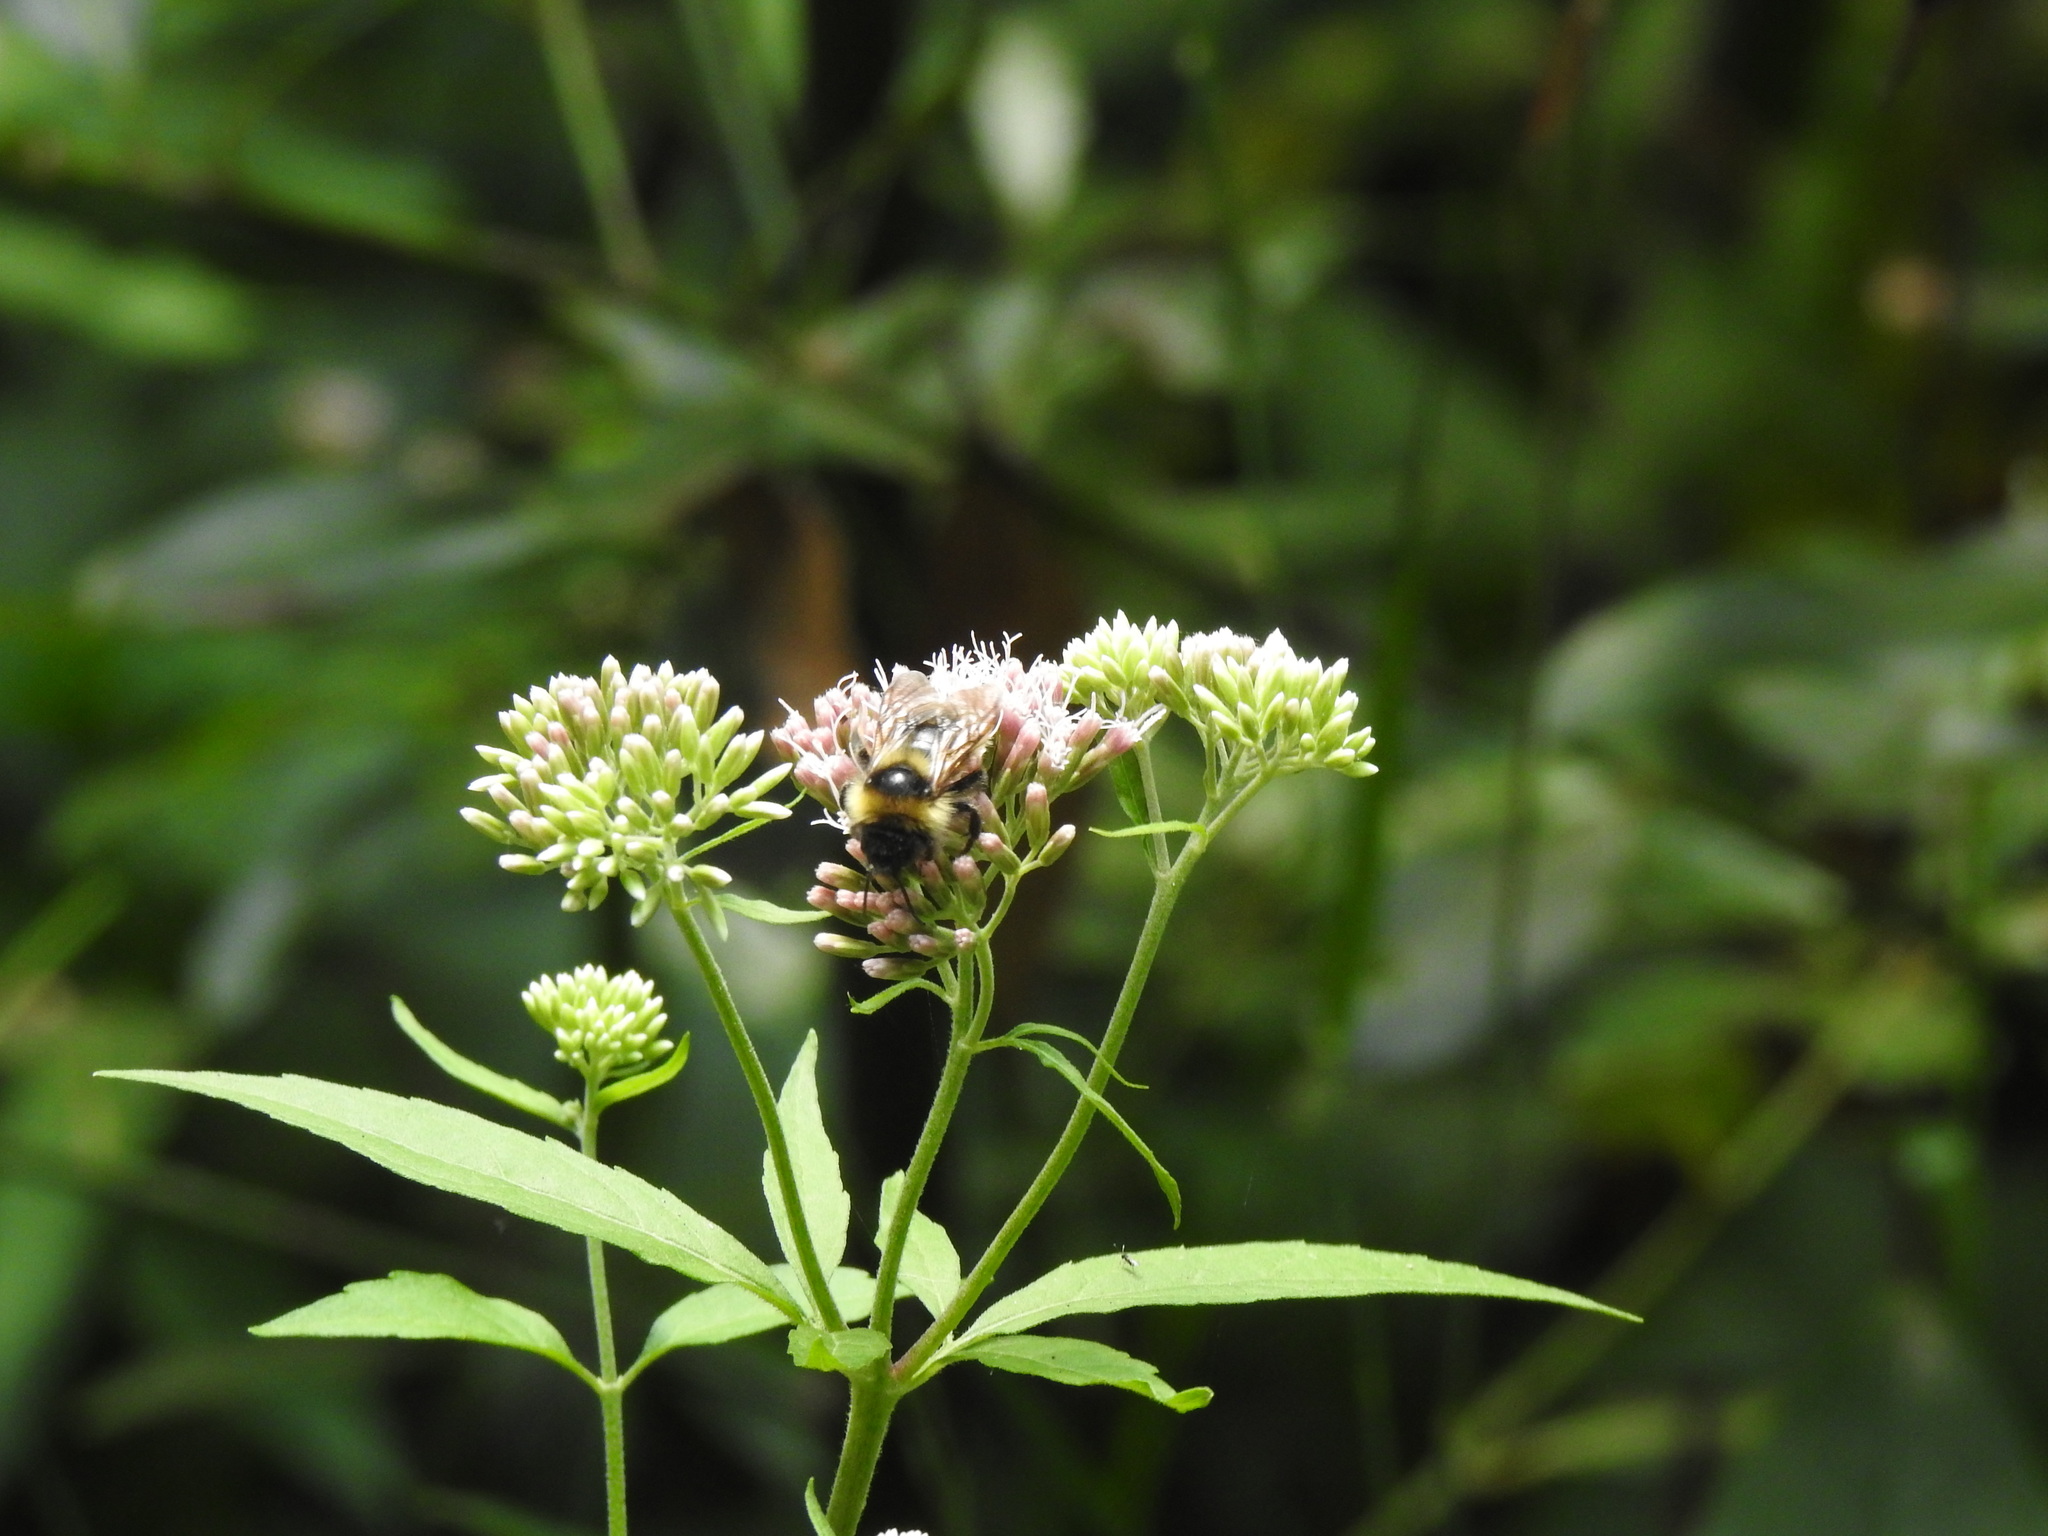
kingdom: Animalia
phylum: Arthropoda
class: Insecta
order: Hymenoptera
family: Apidae
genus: Bombus
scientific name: Bombus campestris
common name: Field cuckoo-bee
